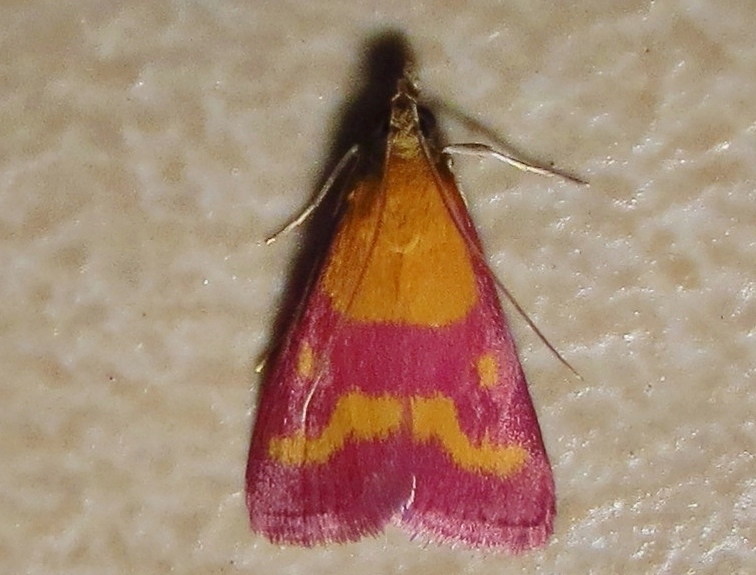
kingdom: Animalia
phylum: Arthropoda
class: Insecta
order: Lepidoptera
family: Crambidae
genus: Pyrausta
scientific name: Pyrausta laticlavia
